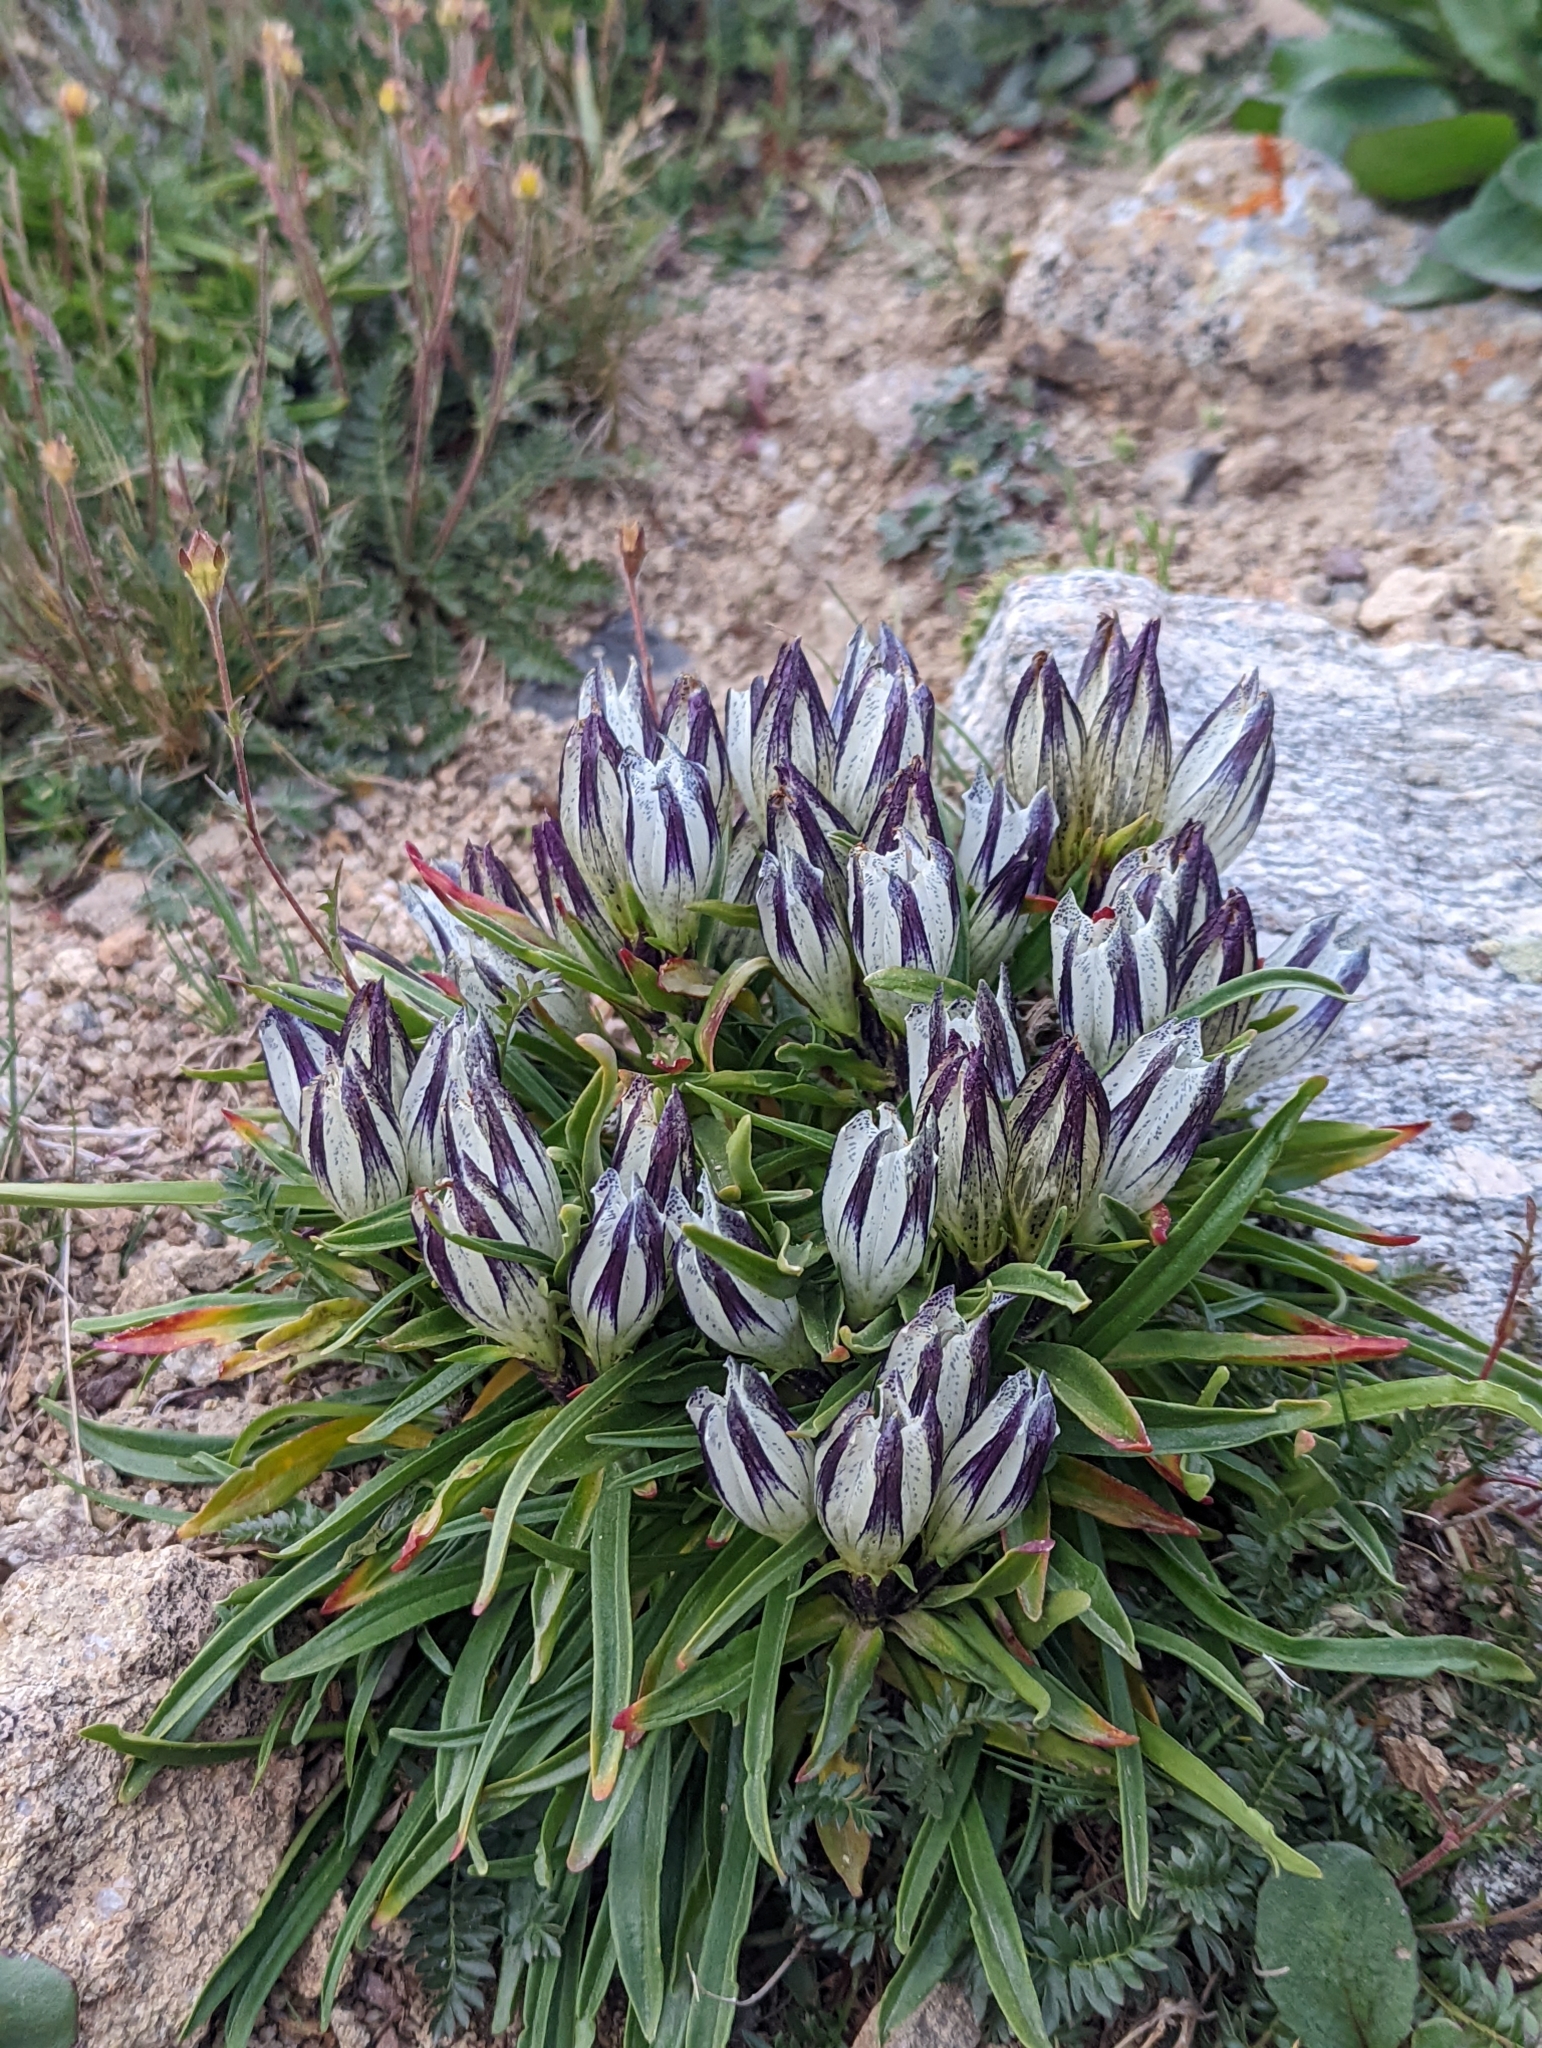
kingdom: Plantae
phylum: Tracheophyta
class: Magnoliopsida
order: Gentianales
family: Gentianaceae
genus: Gentiana
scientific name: Gentiana algida
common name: Arctic gentian
